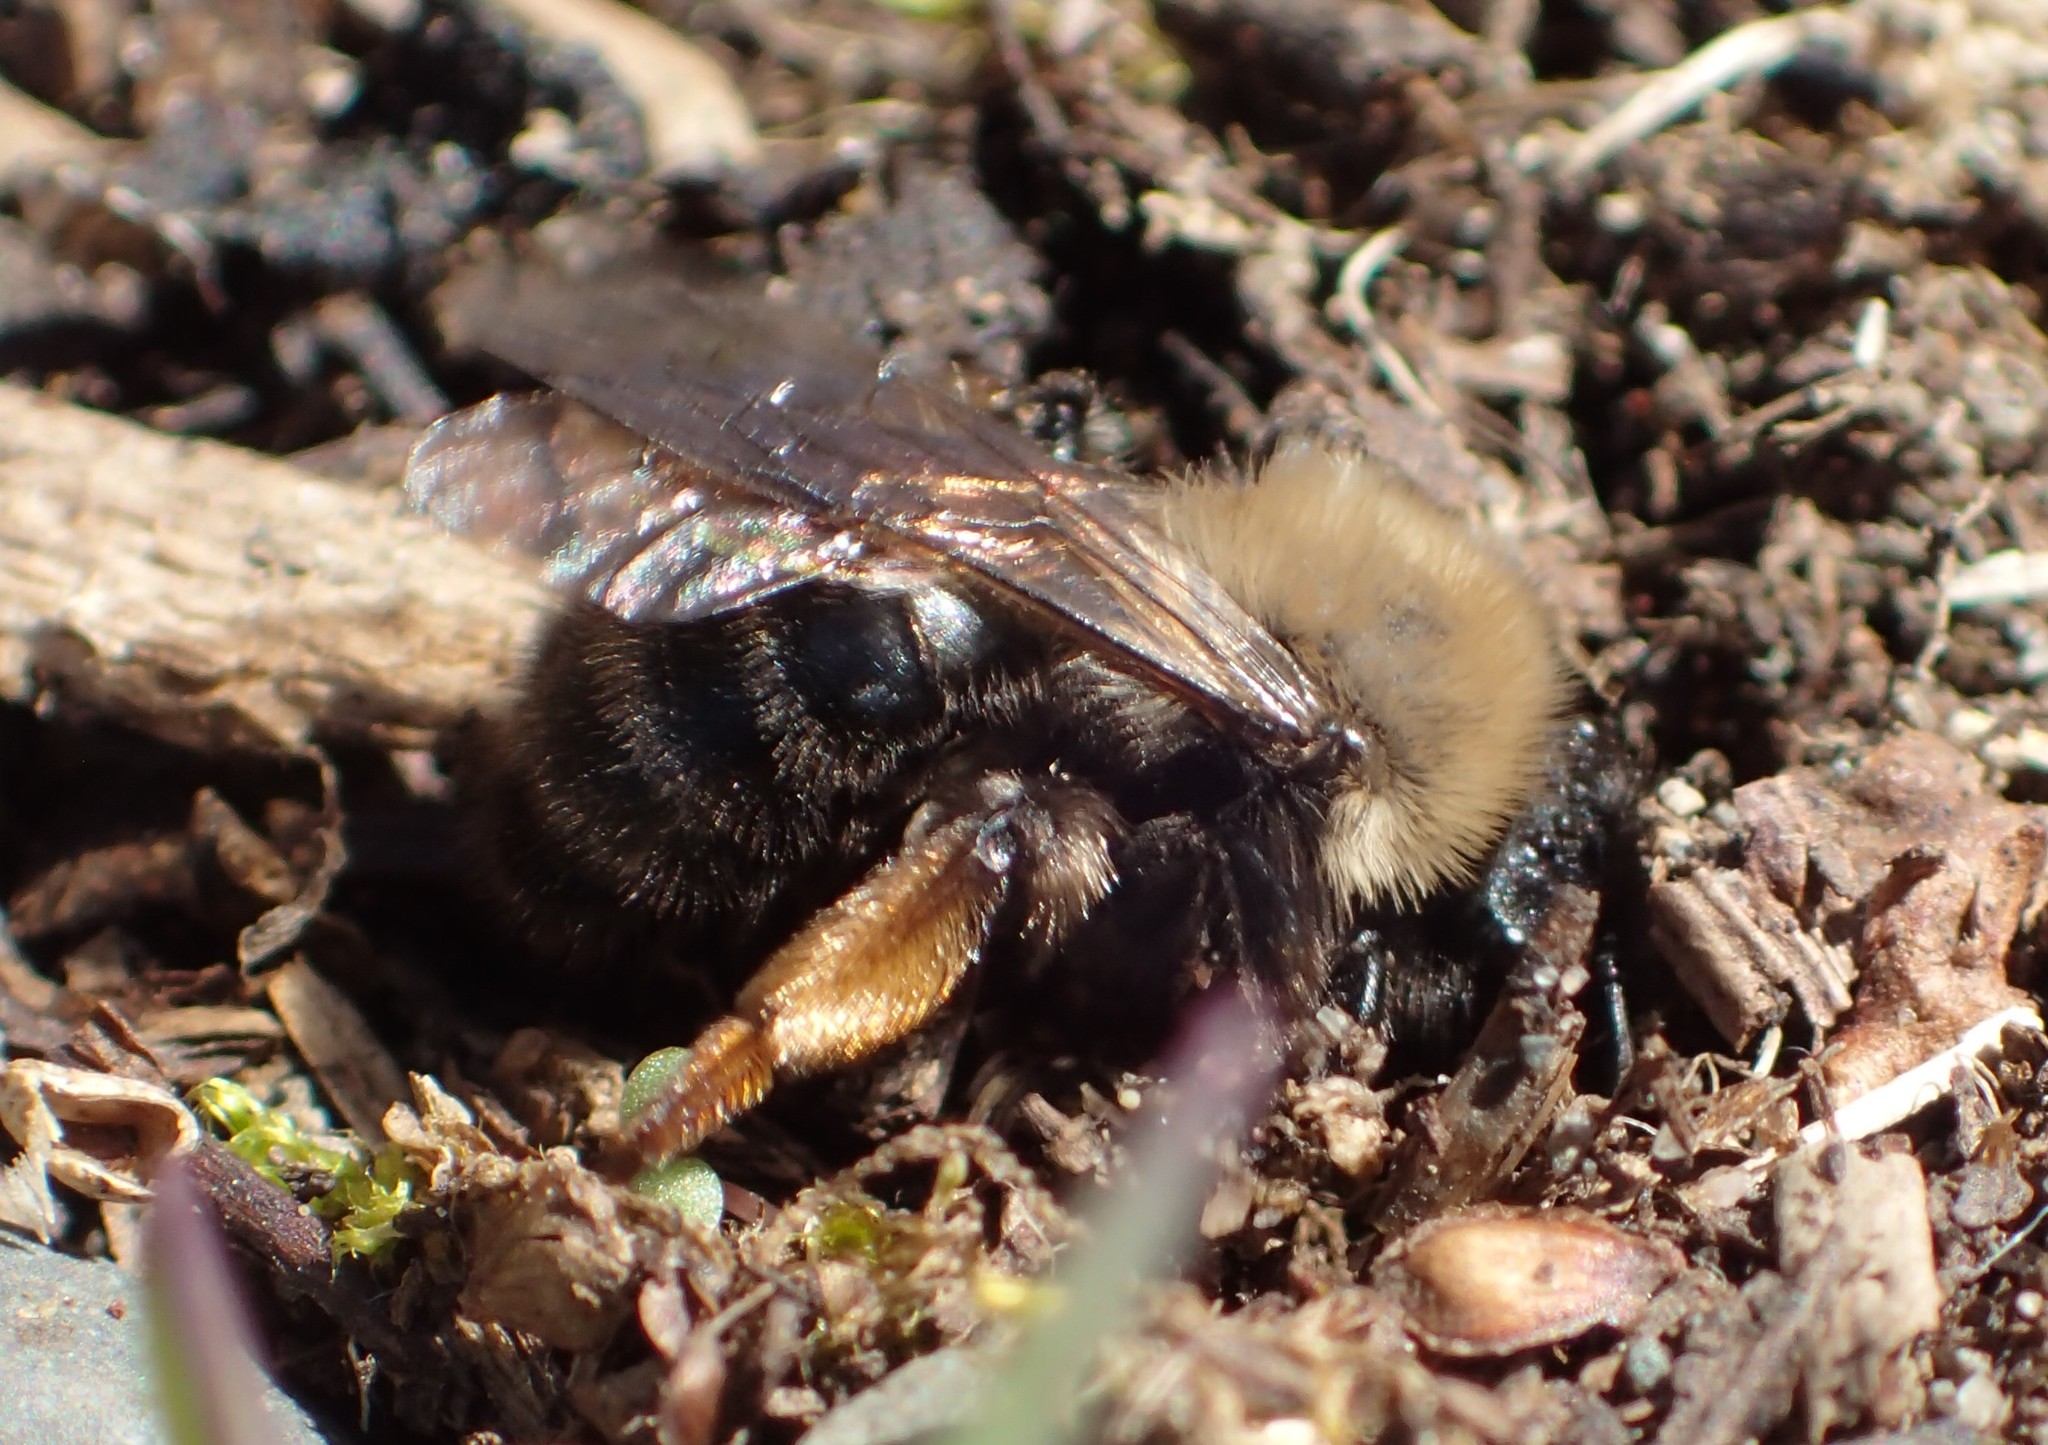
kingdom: Animalia
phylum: Arthropoda
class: Insecta
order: Hymenoptera
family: Andrenidae
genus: Andrena
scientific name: Andrena clarkella
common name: Clarke's mining bee
